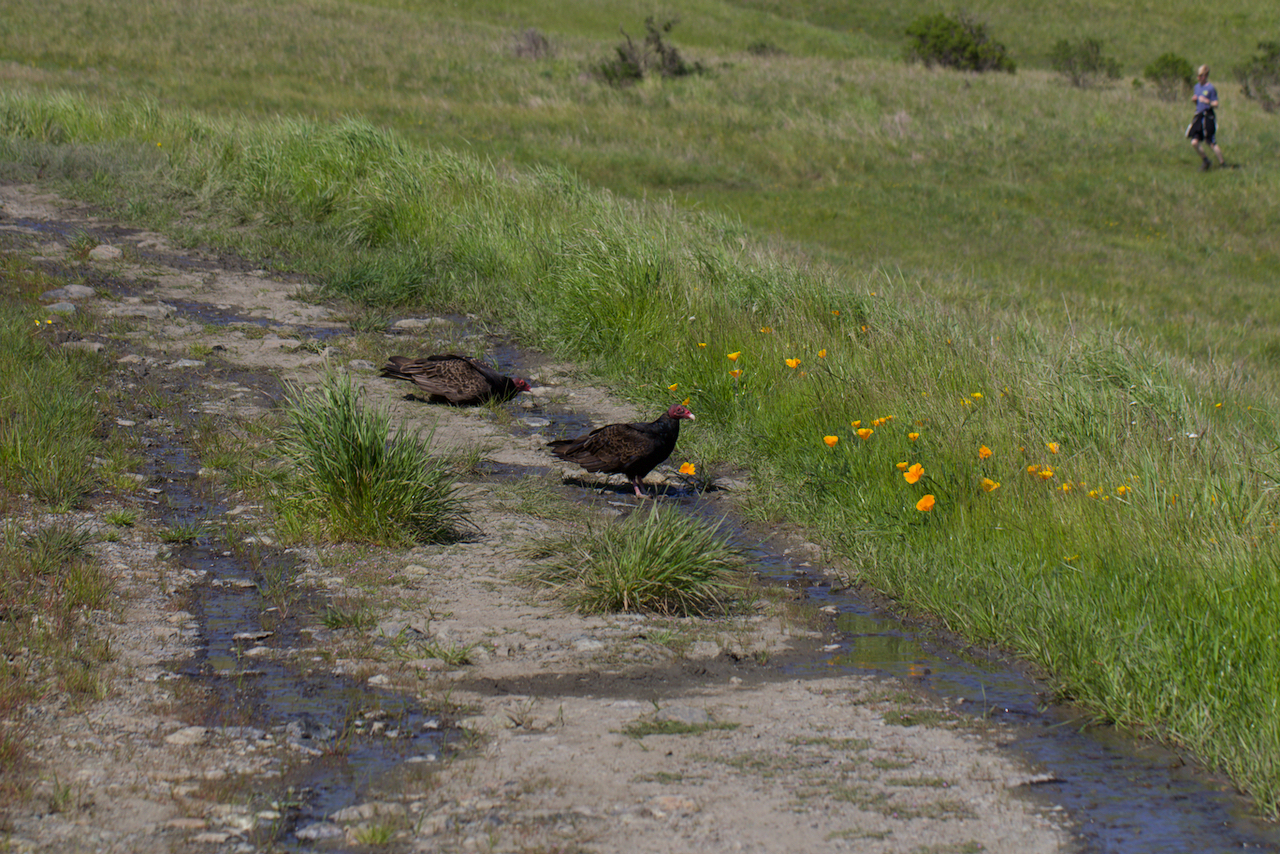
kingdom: Animalia
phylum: Chordata
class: Aves
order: Accipitriformes
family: Cathartidae
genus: Cathartes
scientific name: Cathartes aura
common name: Turkey vulture
